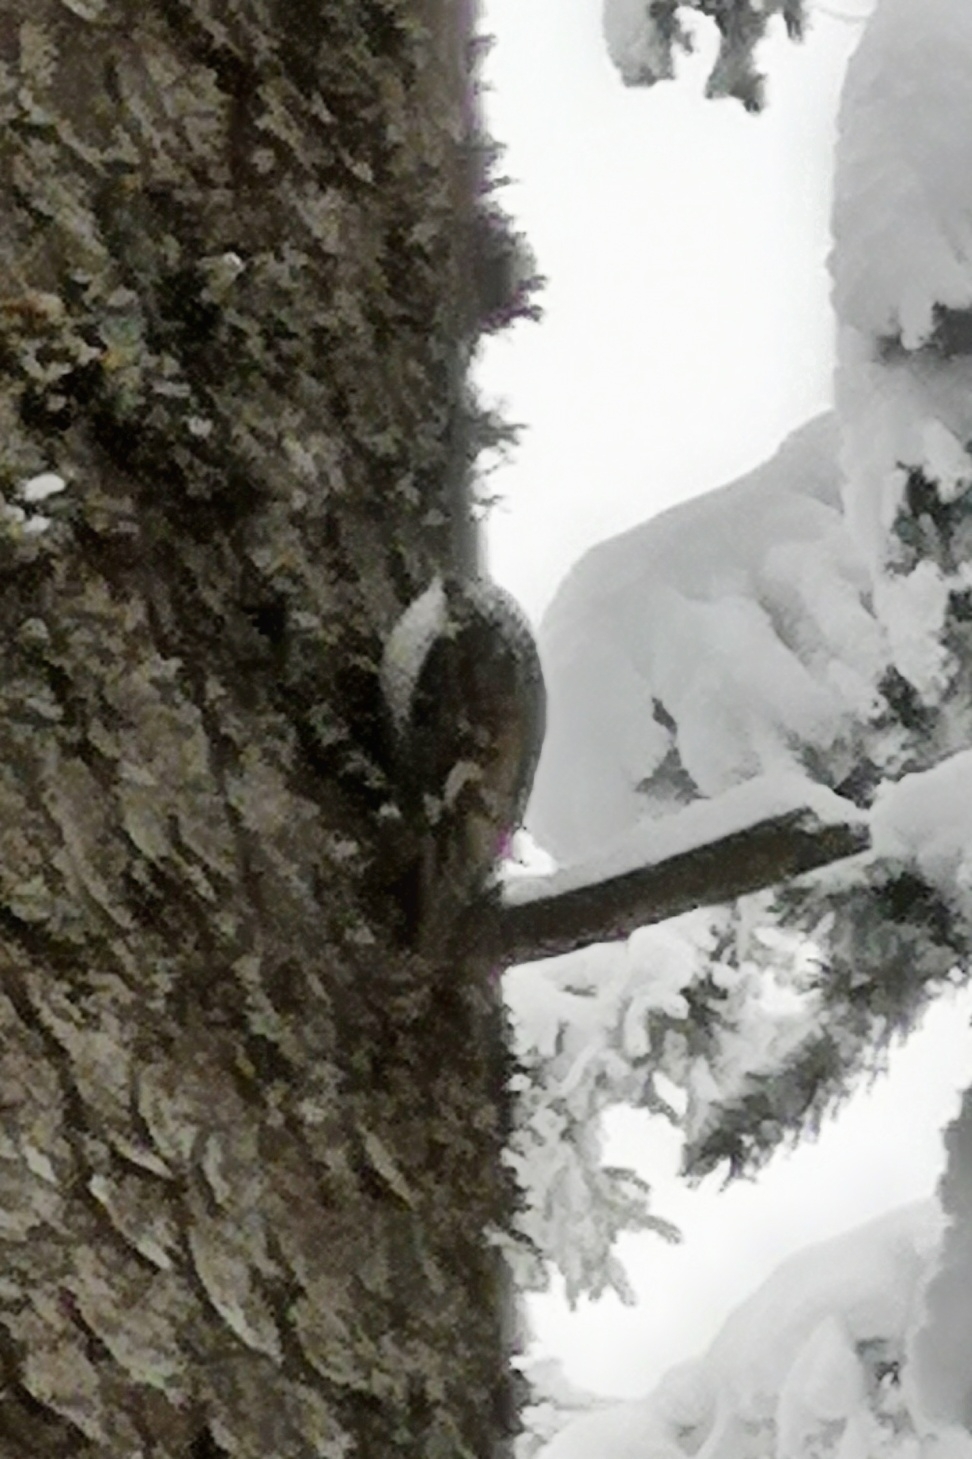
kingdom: Animalia
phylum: Chordata
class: Aves
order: Passeriformes
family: Certhiidae
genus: Certhia
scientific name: Certhia familiaris
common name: Eurasian treecreeper
